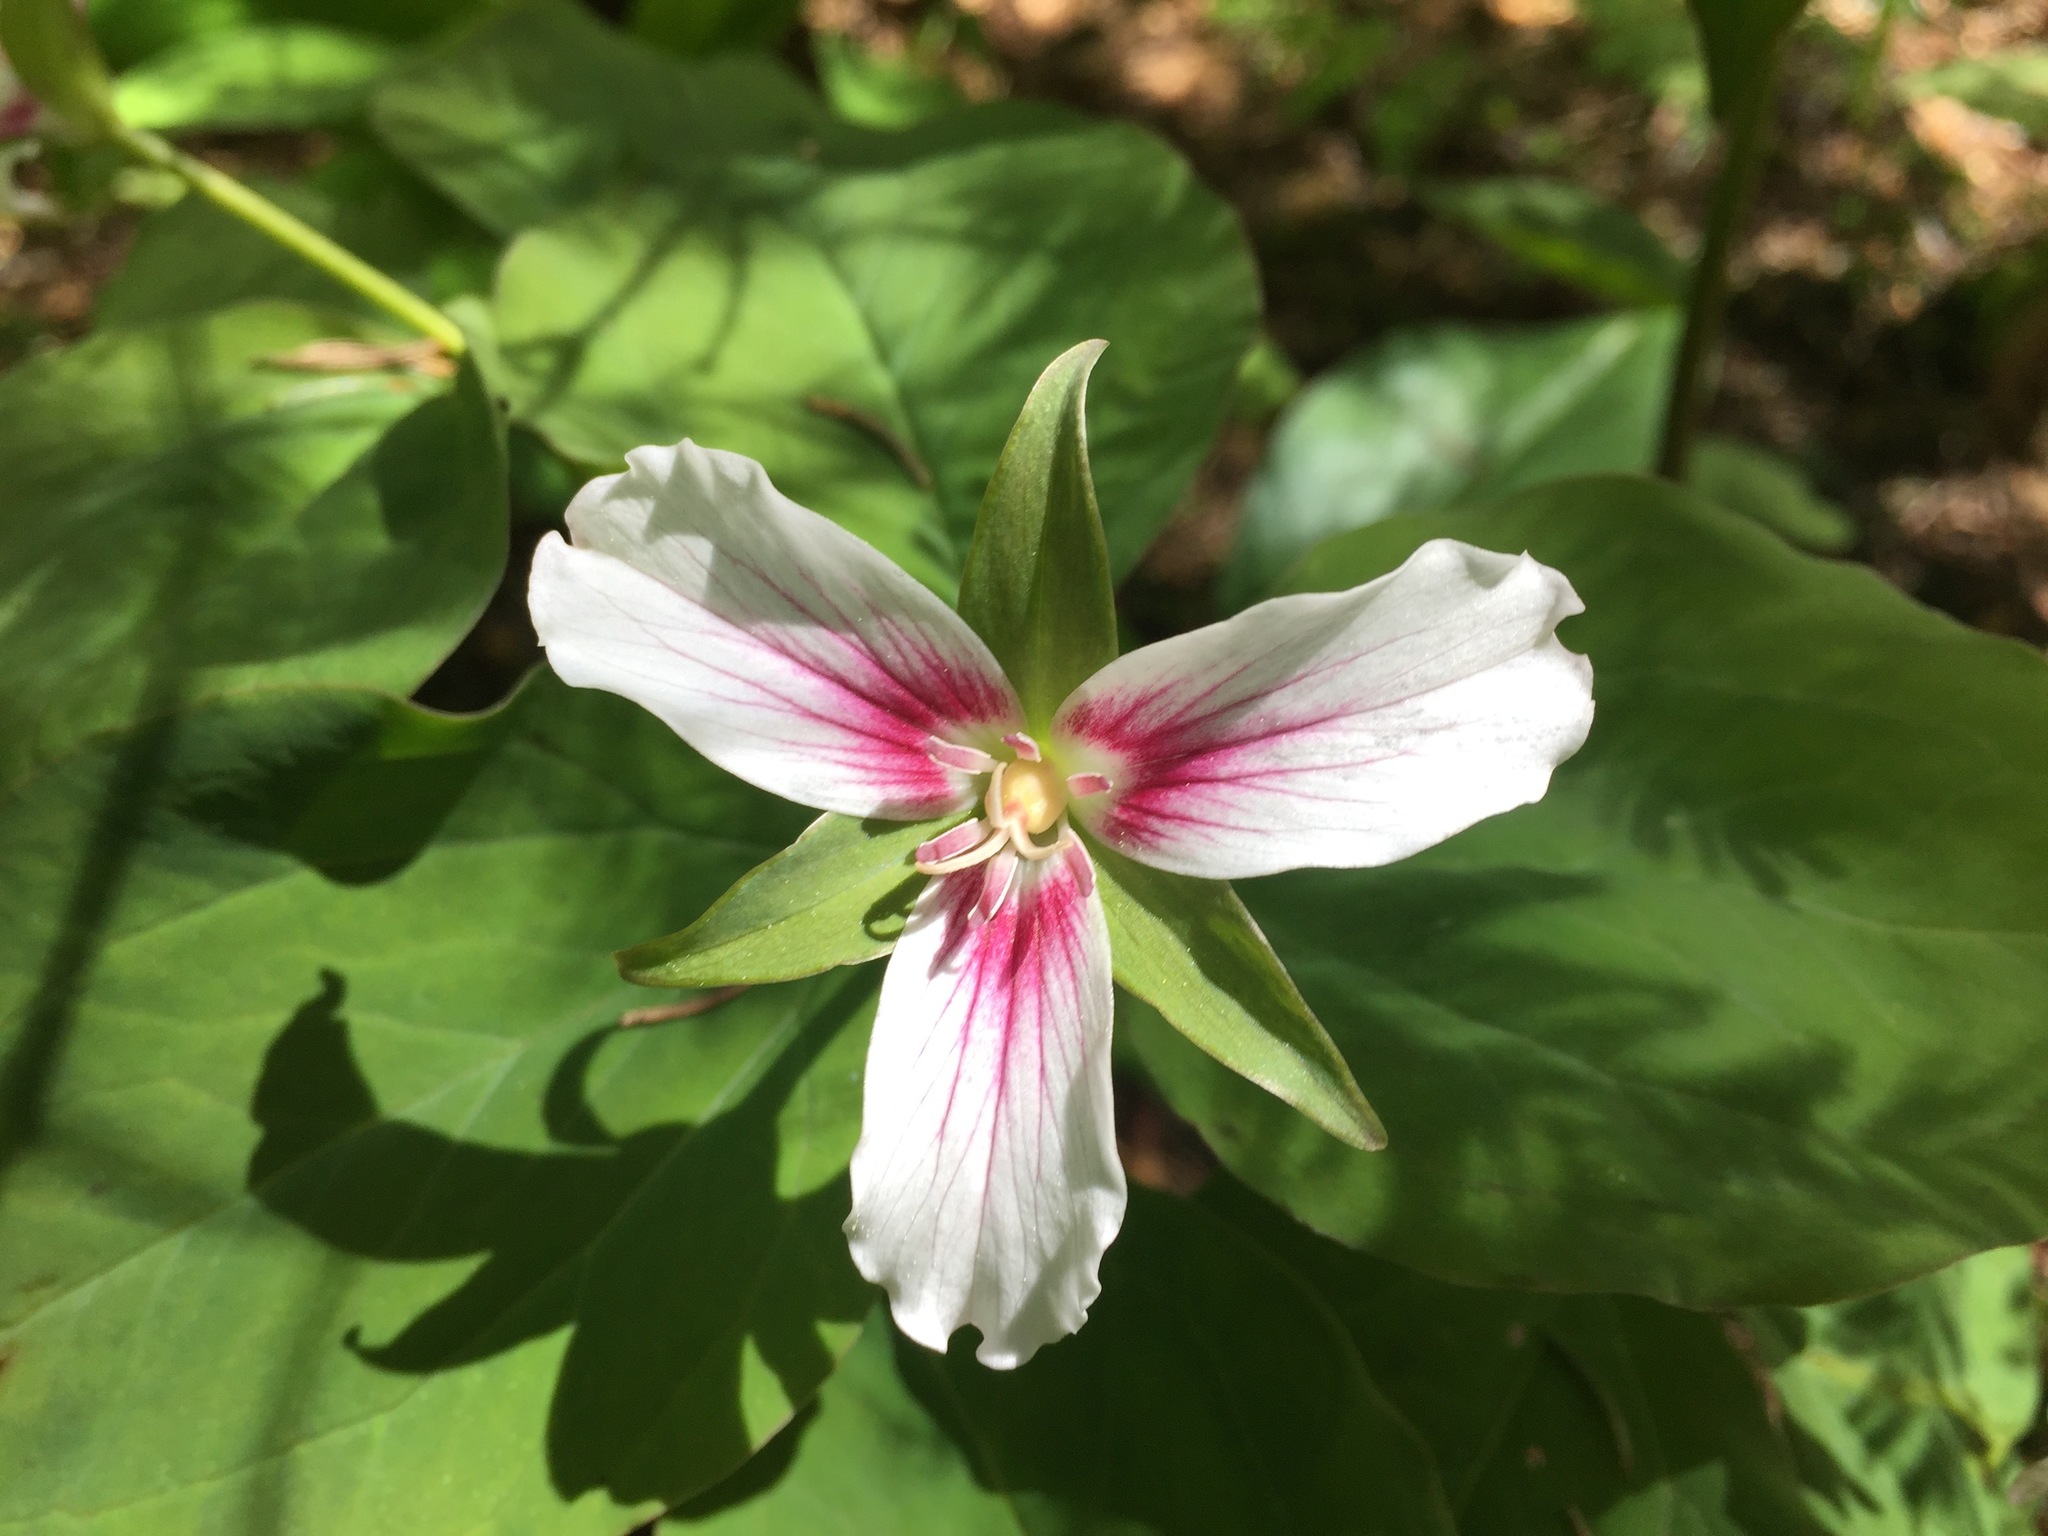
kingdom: Plantae
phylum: Tracheophyta
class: Liliopsida
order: Liliales
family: Melanthiaceae
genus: Trillium
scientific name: Trillium undulatum
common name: Paint trillium
